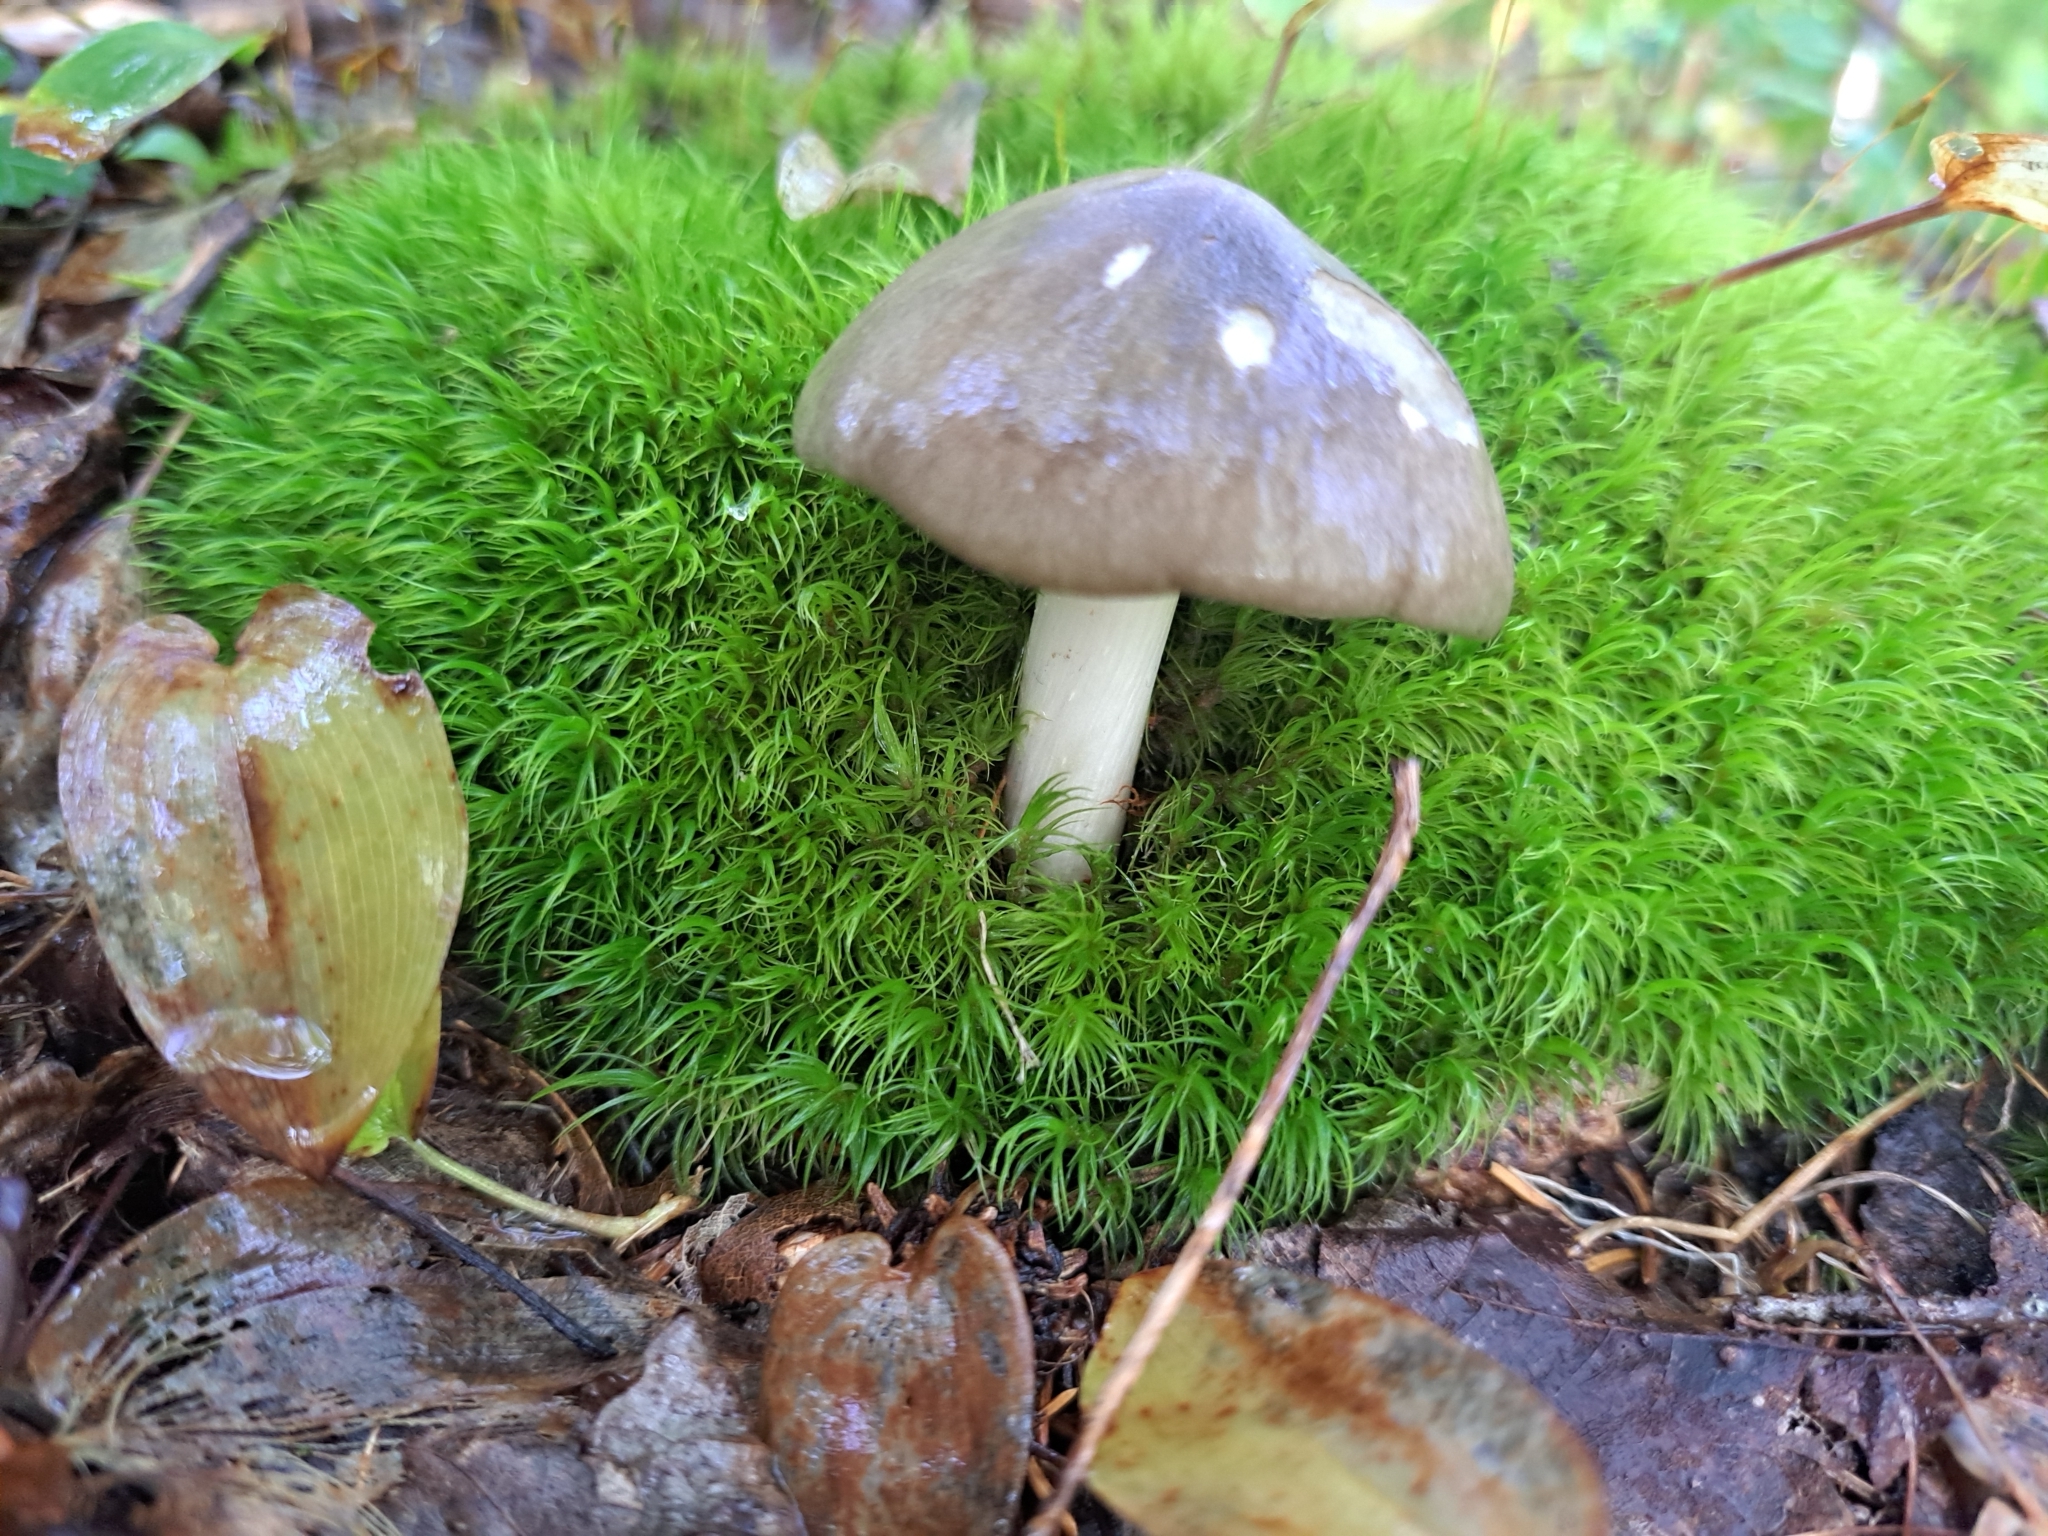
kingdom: Fungi
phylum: Basidiomycota
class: Agaricomycetes
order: Agaricales
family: Tricholomataceae
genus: Megacollybia
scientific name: Megacollybia rodmanii
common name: Eastern american platterful mushroom
